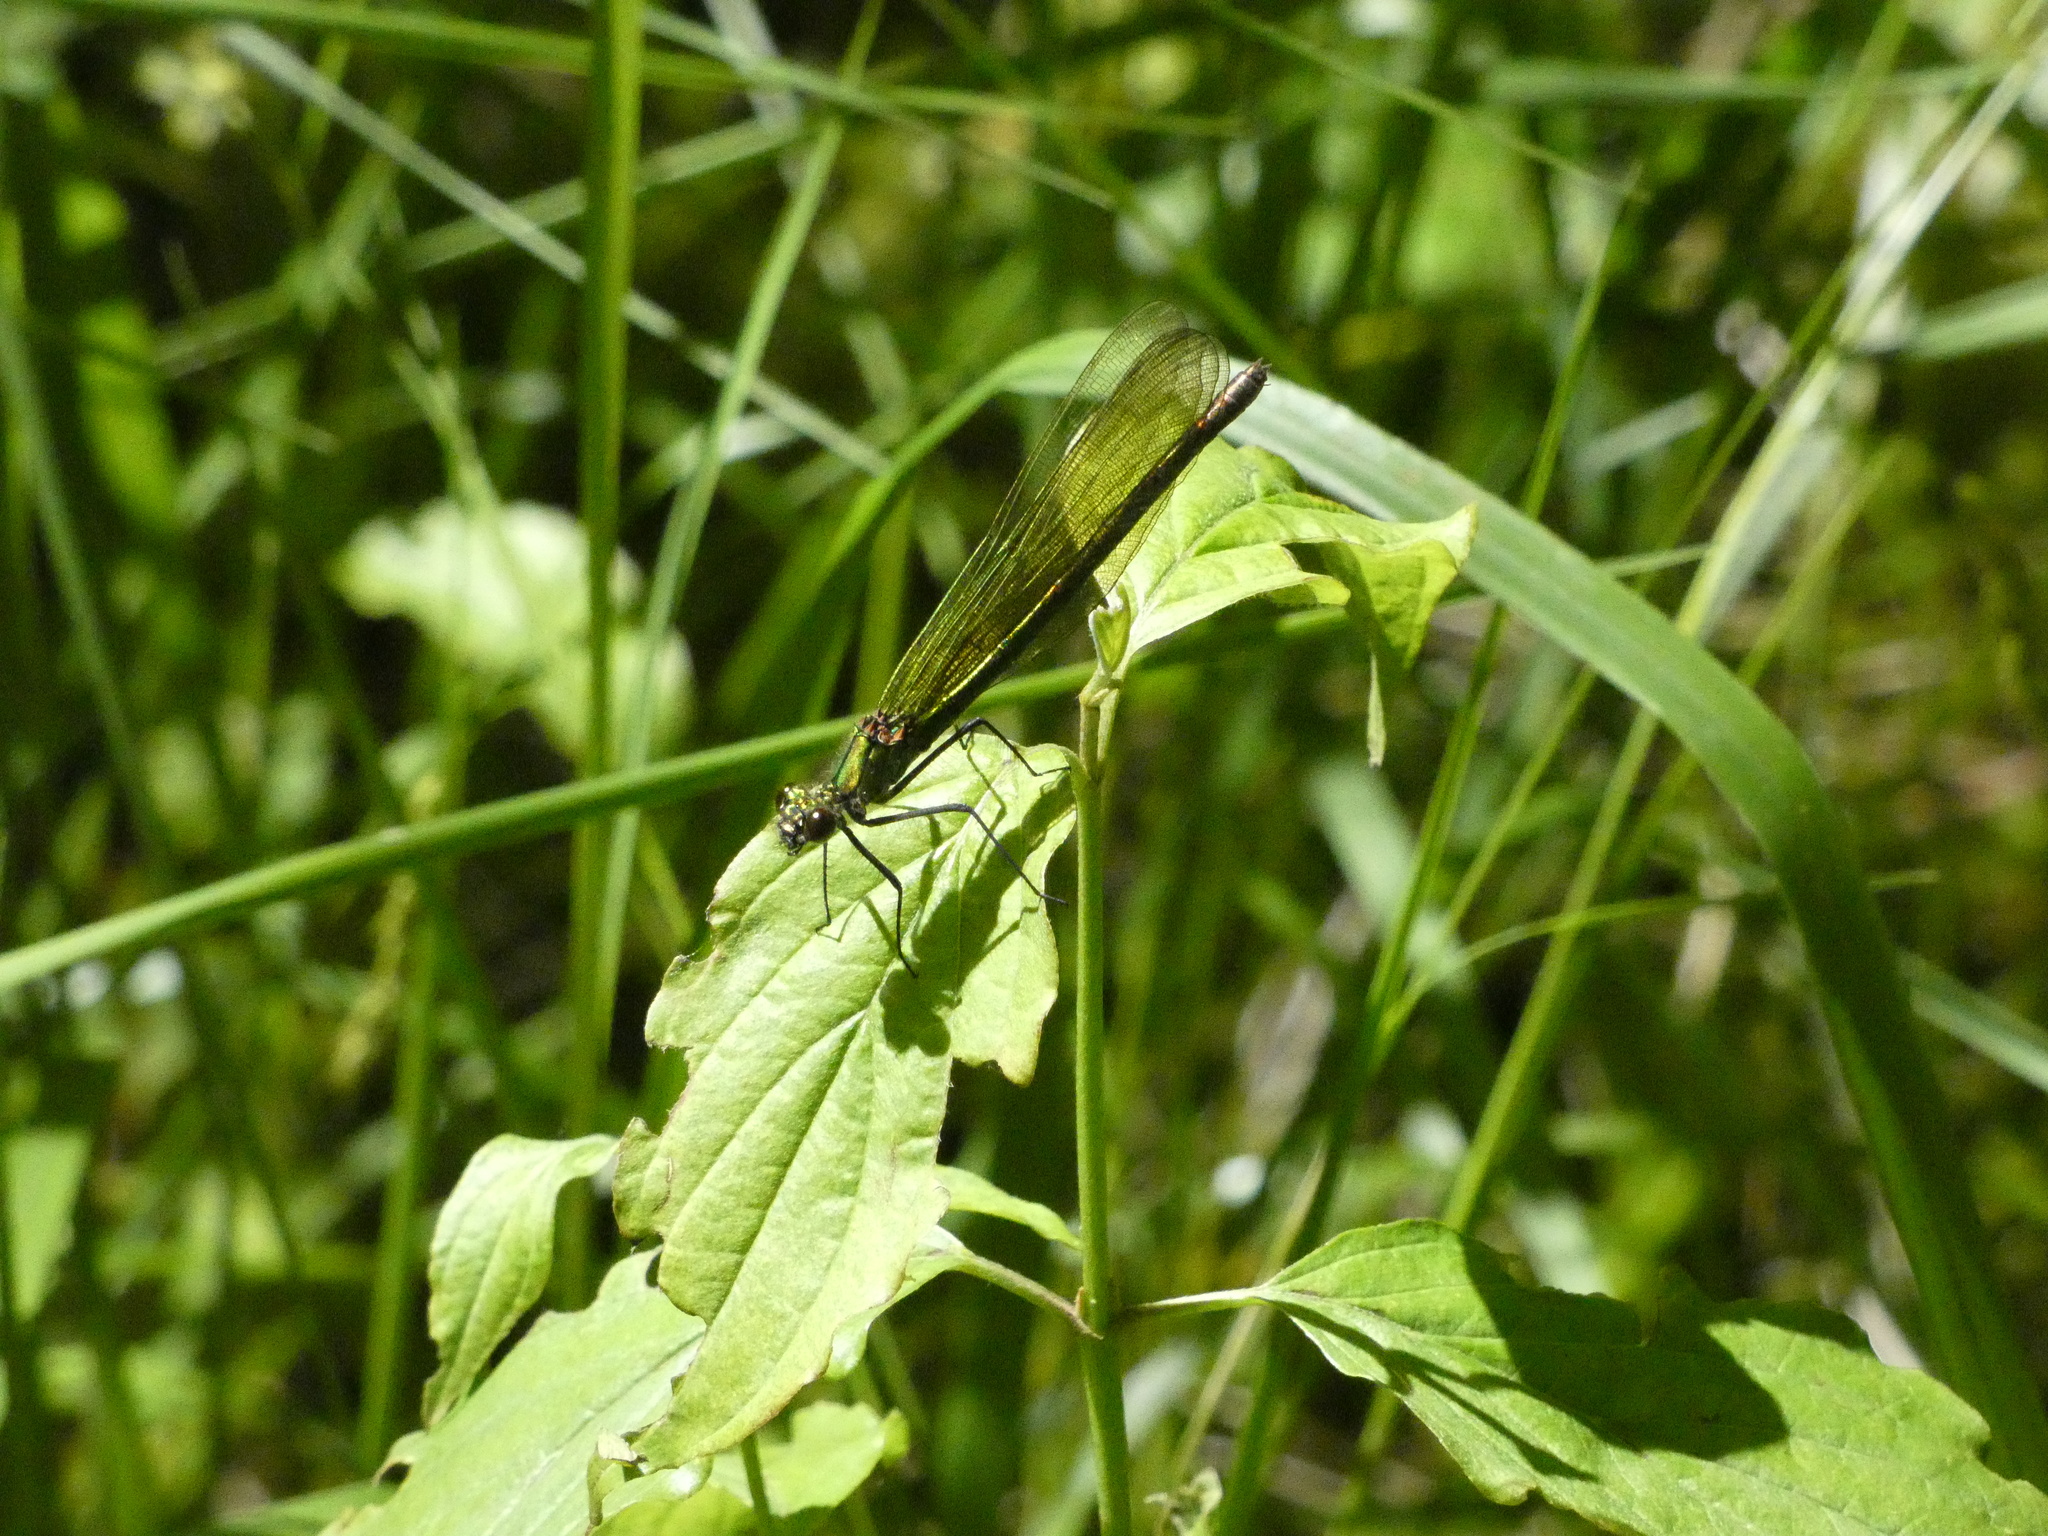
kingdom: Animalia
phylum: Arthropoda
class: Insecta
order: Odonata
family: Calopterygidae
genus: Calopteryx
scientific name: Calopteryx splendens
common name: Banded demoiselle
